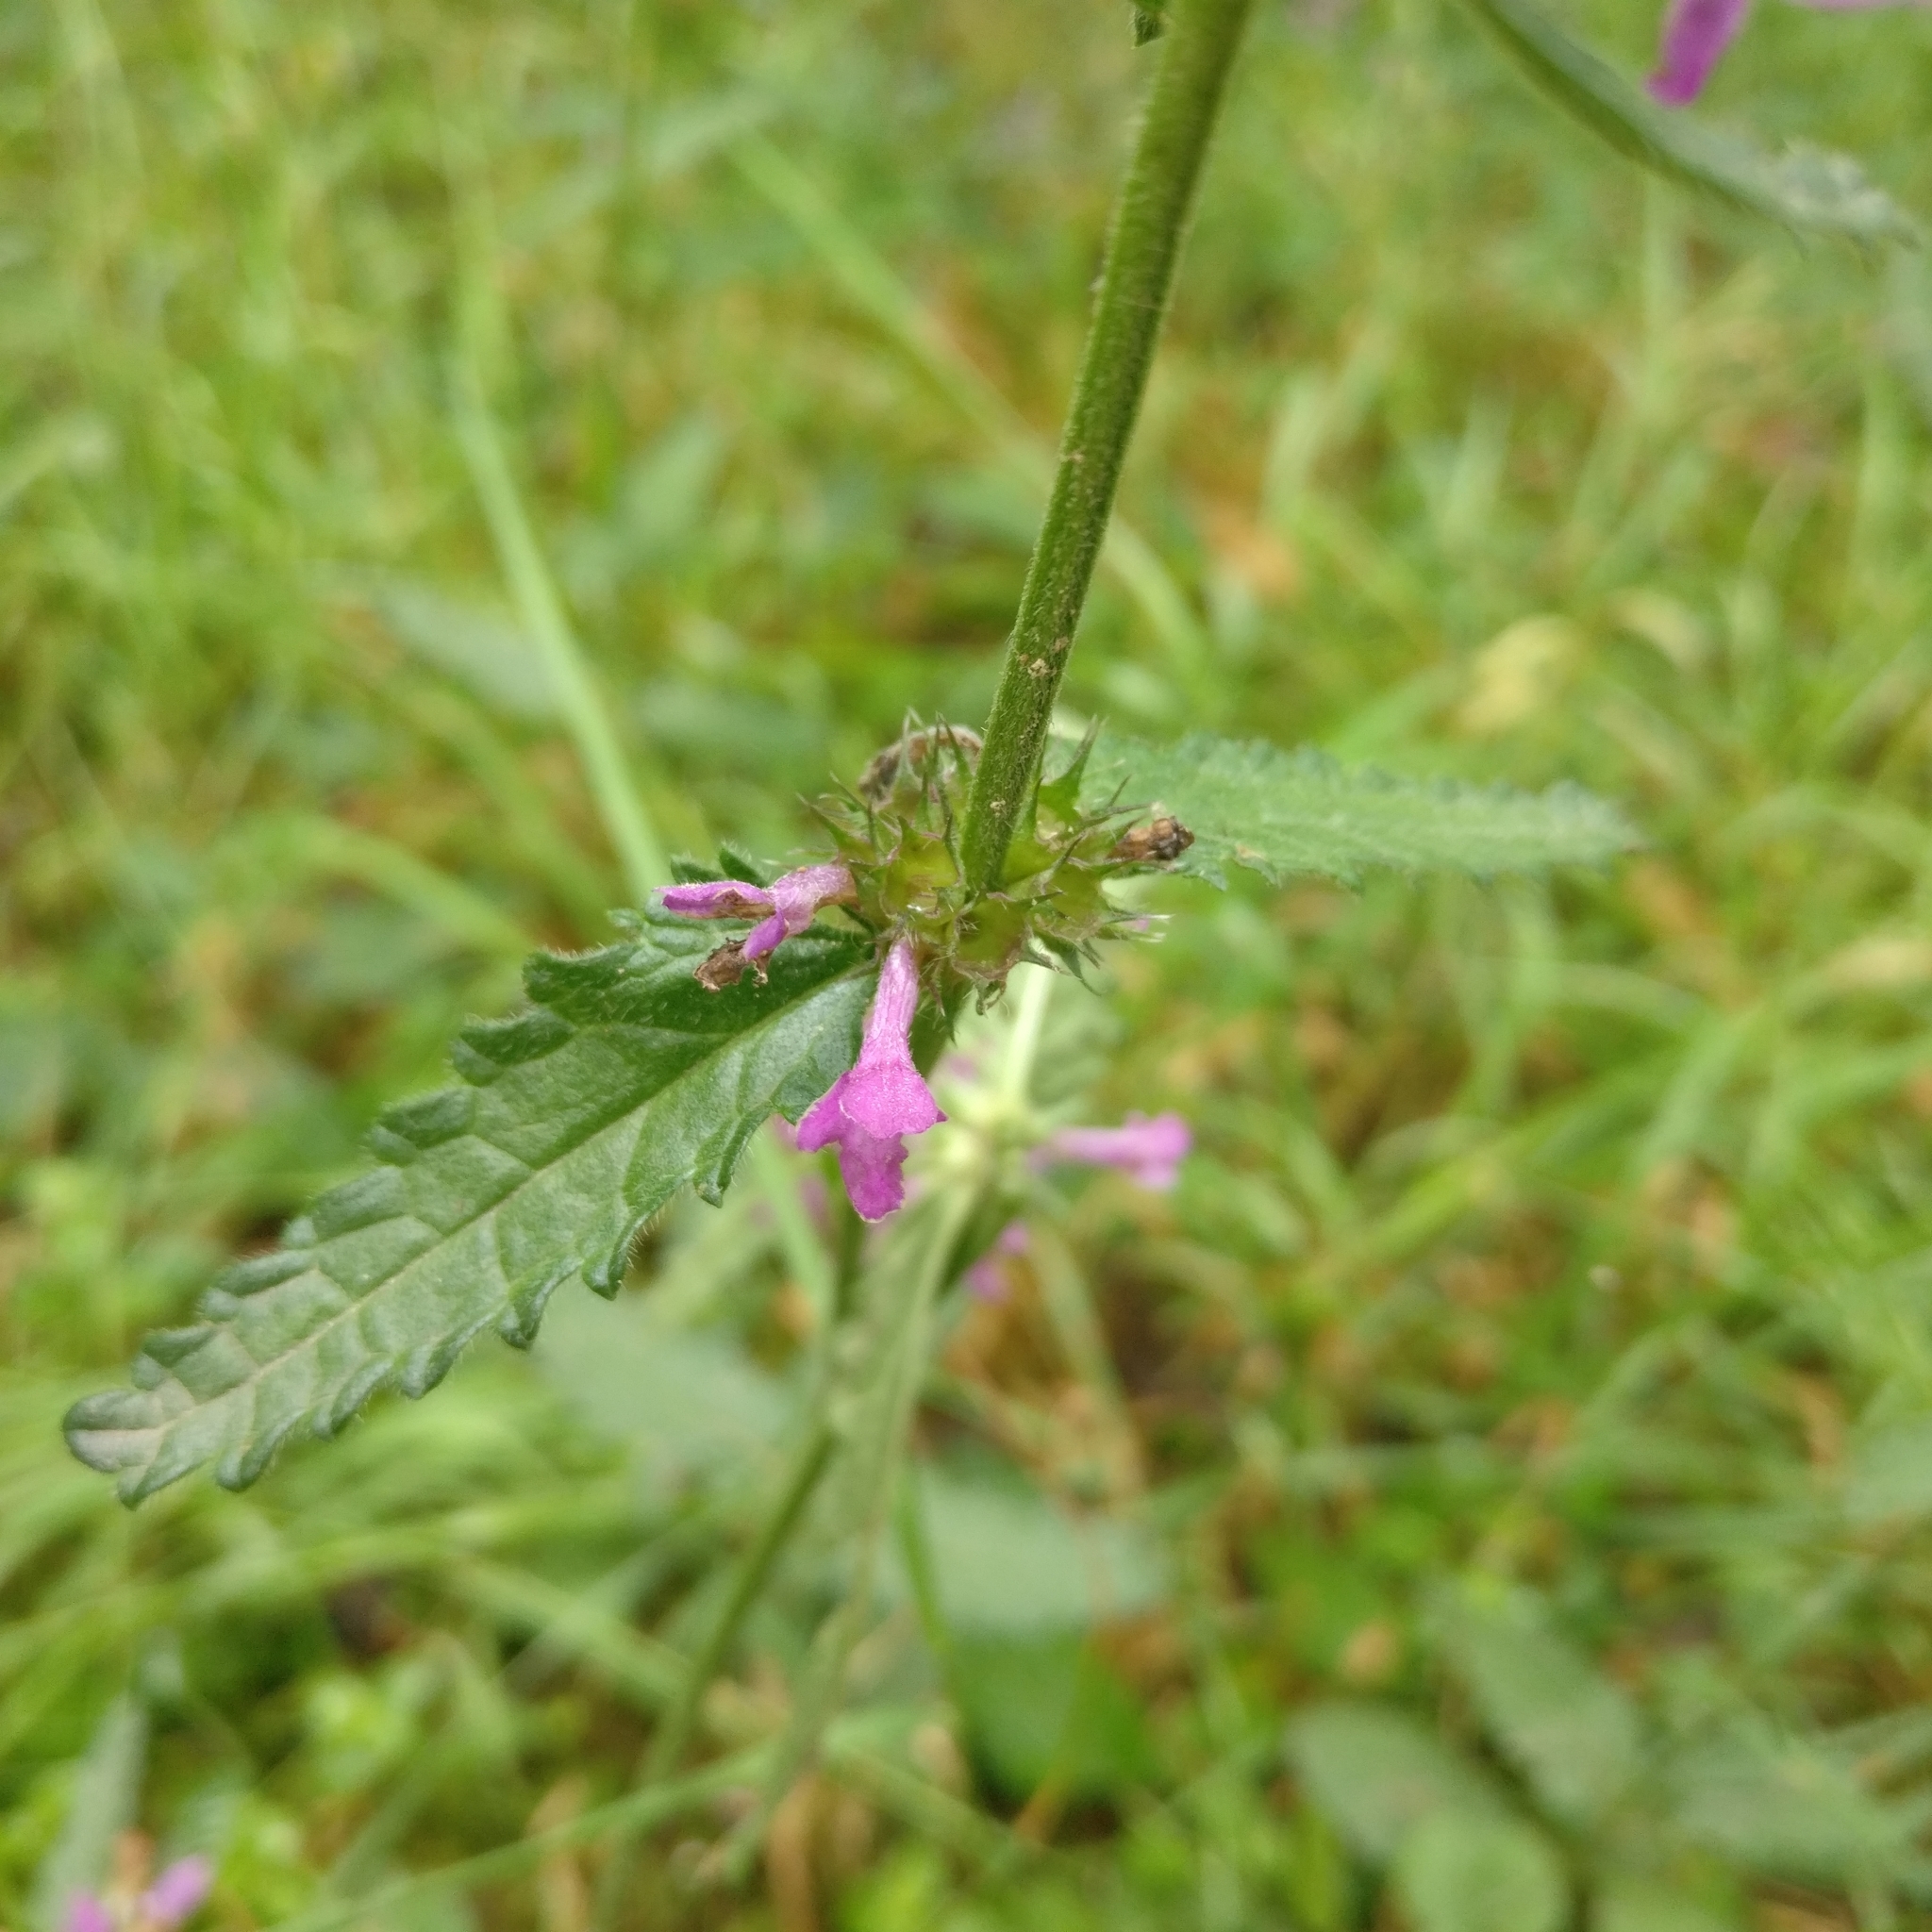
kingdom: Plantae
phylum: Tracheophyta
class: Magnoliopsida
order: Lamiales
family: Lamiaceae
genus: Betonica
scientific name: Betonica officinalis
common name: Bishop's-wort
